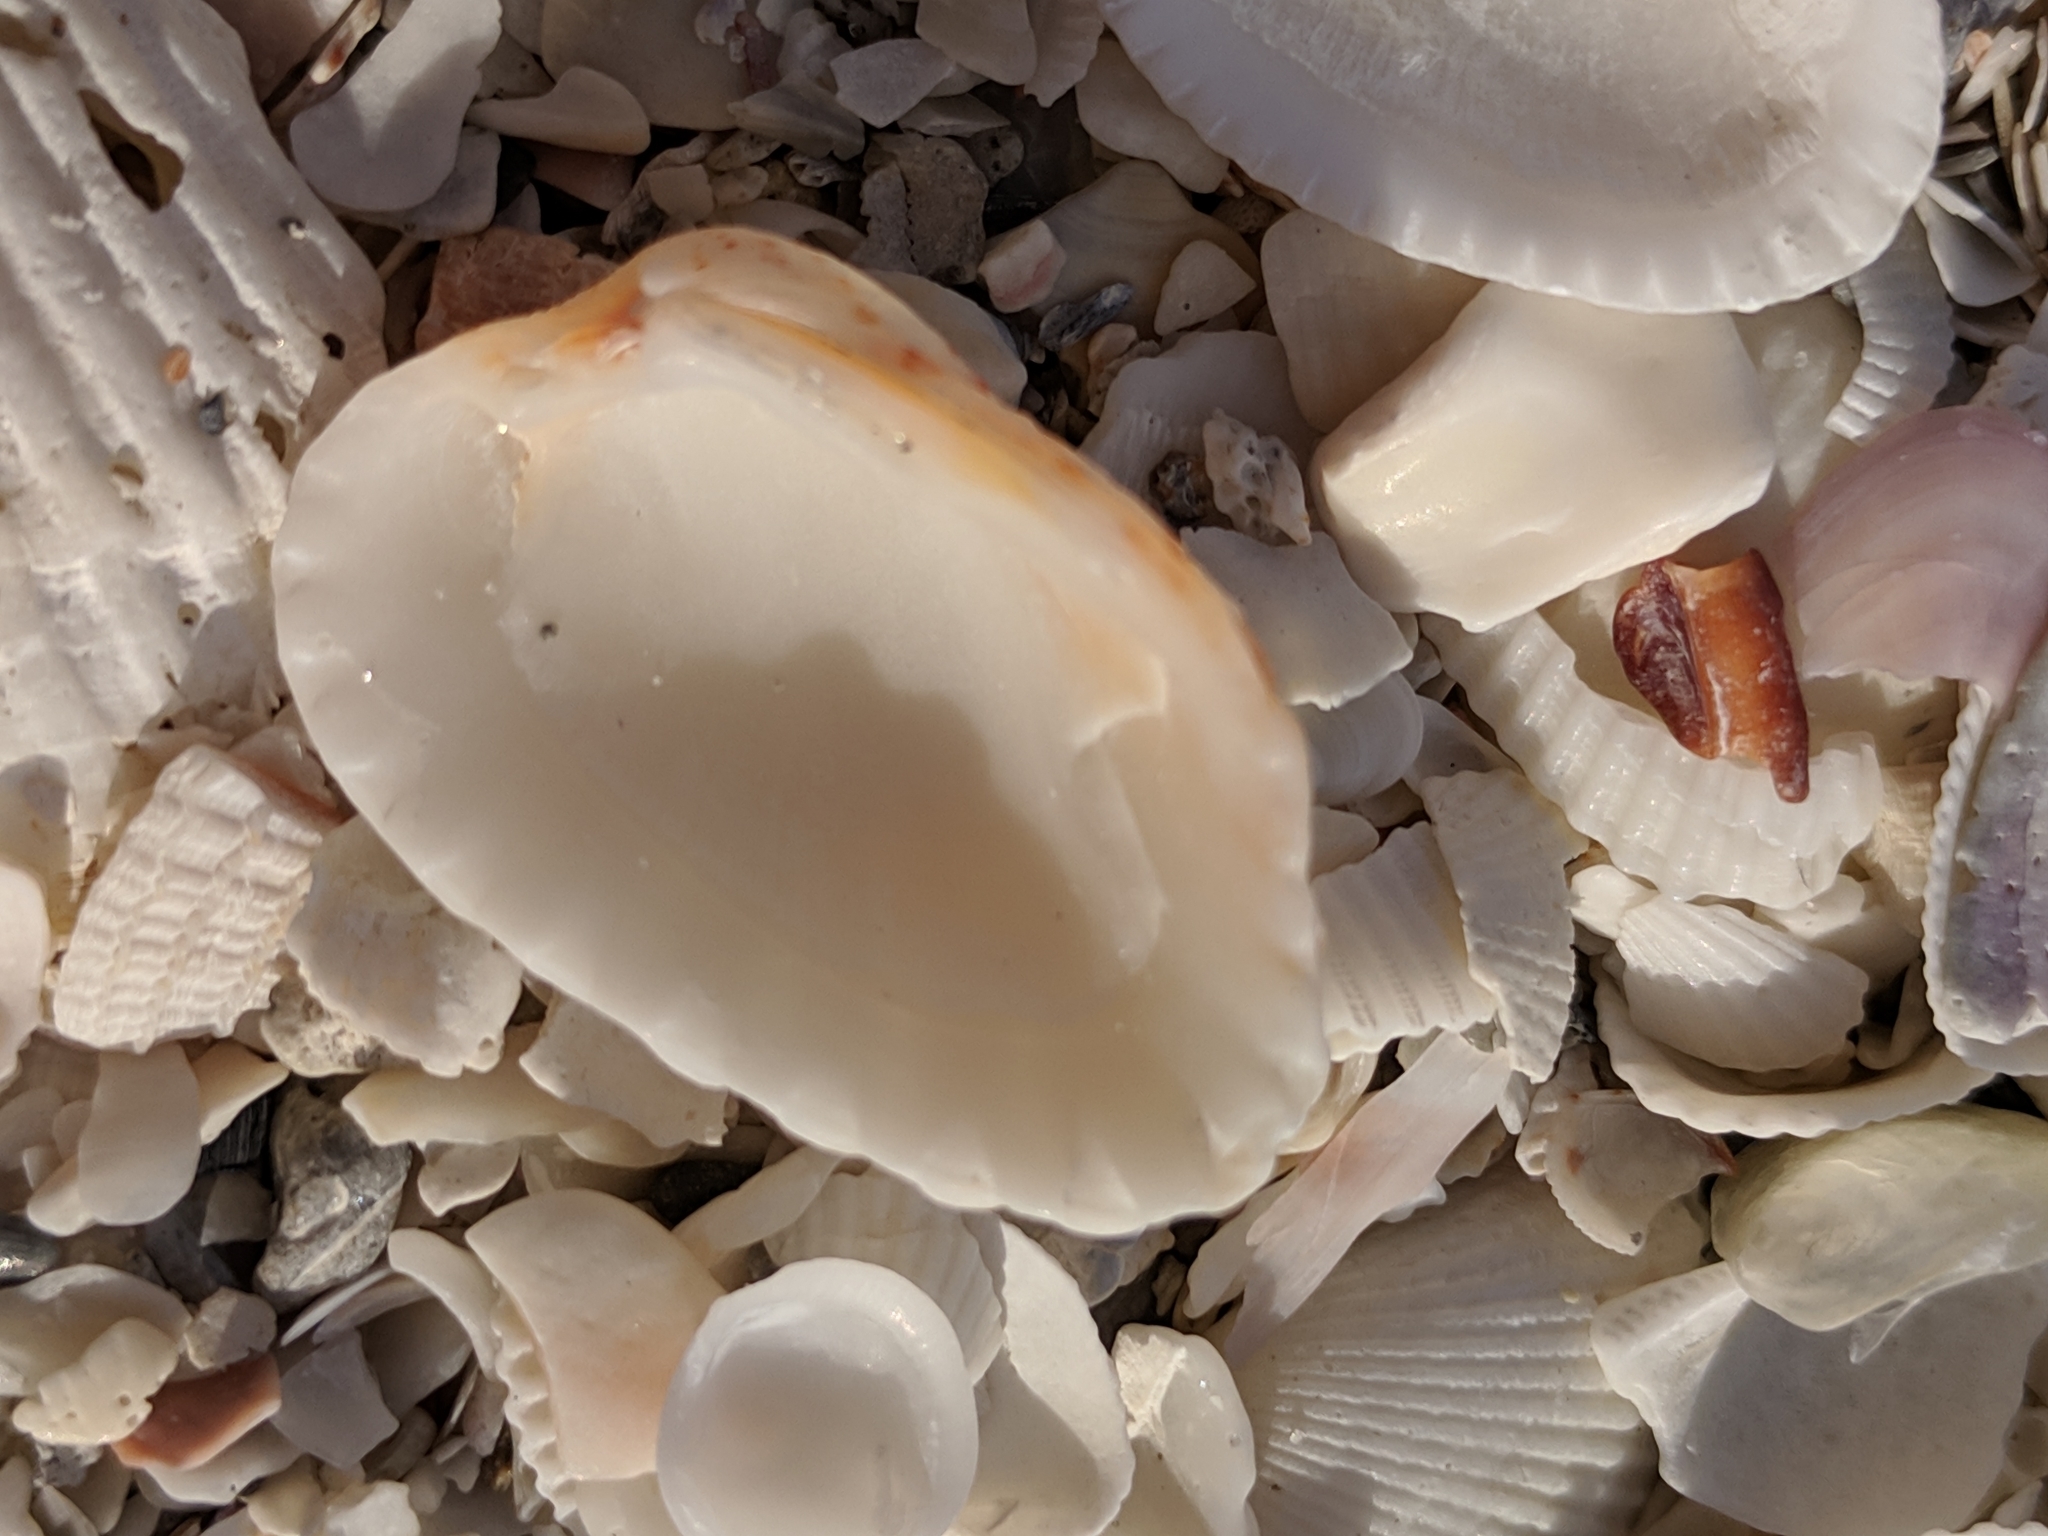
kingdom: Animalia
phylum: Mollusca
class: Bivalvia
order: Carditida
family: Carditidae
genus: Cardites
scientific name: Cardites floridanus
